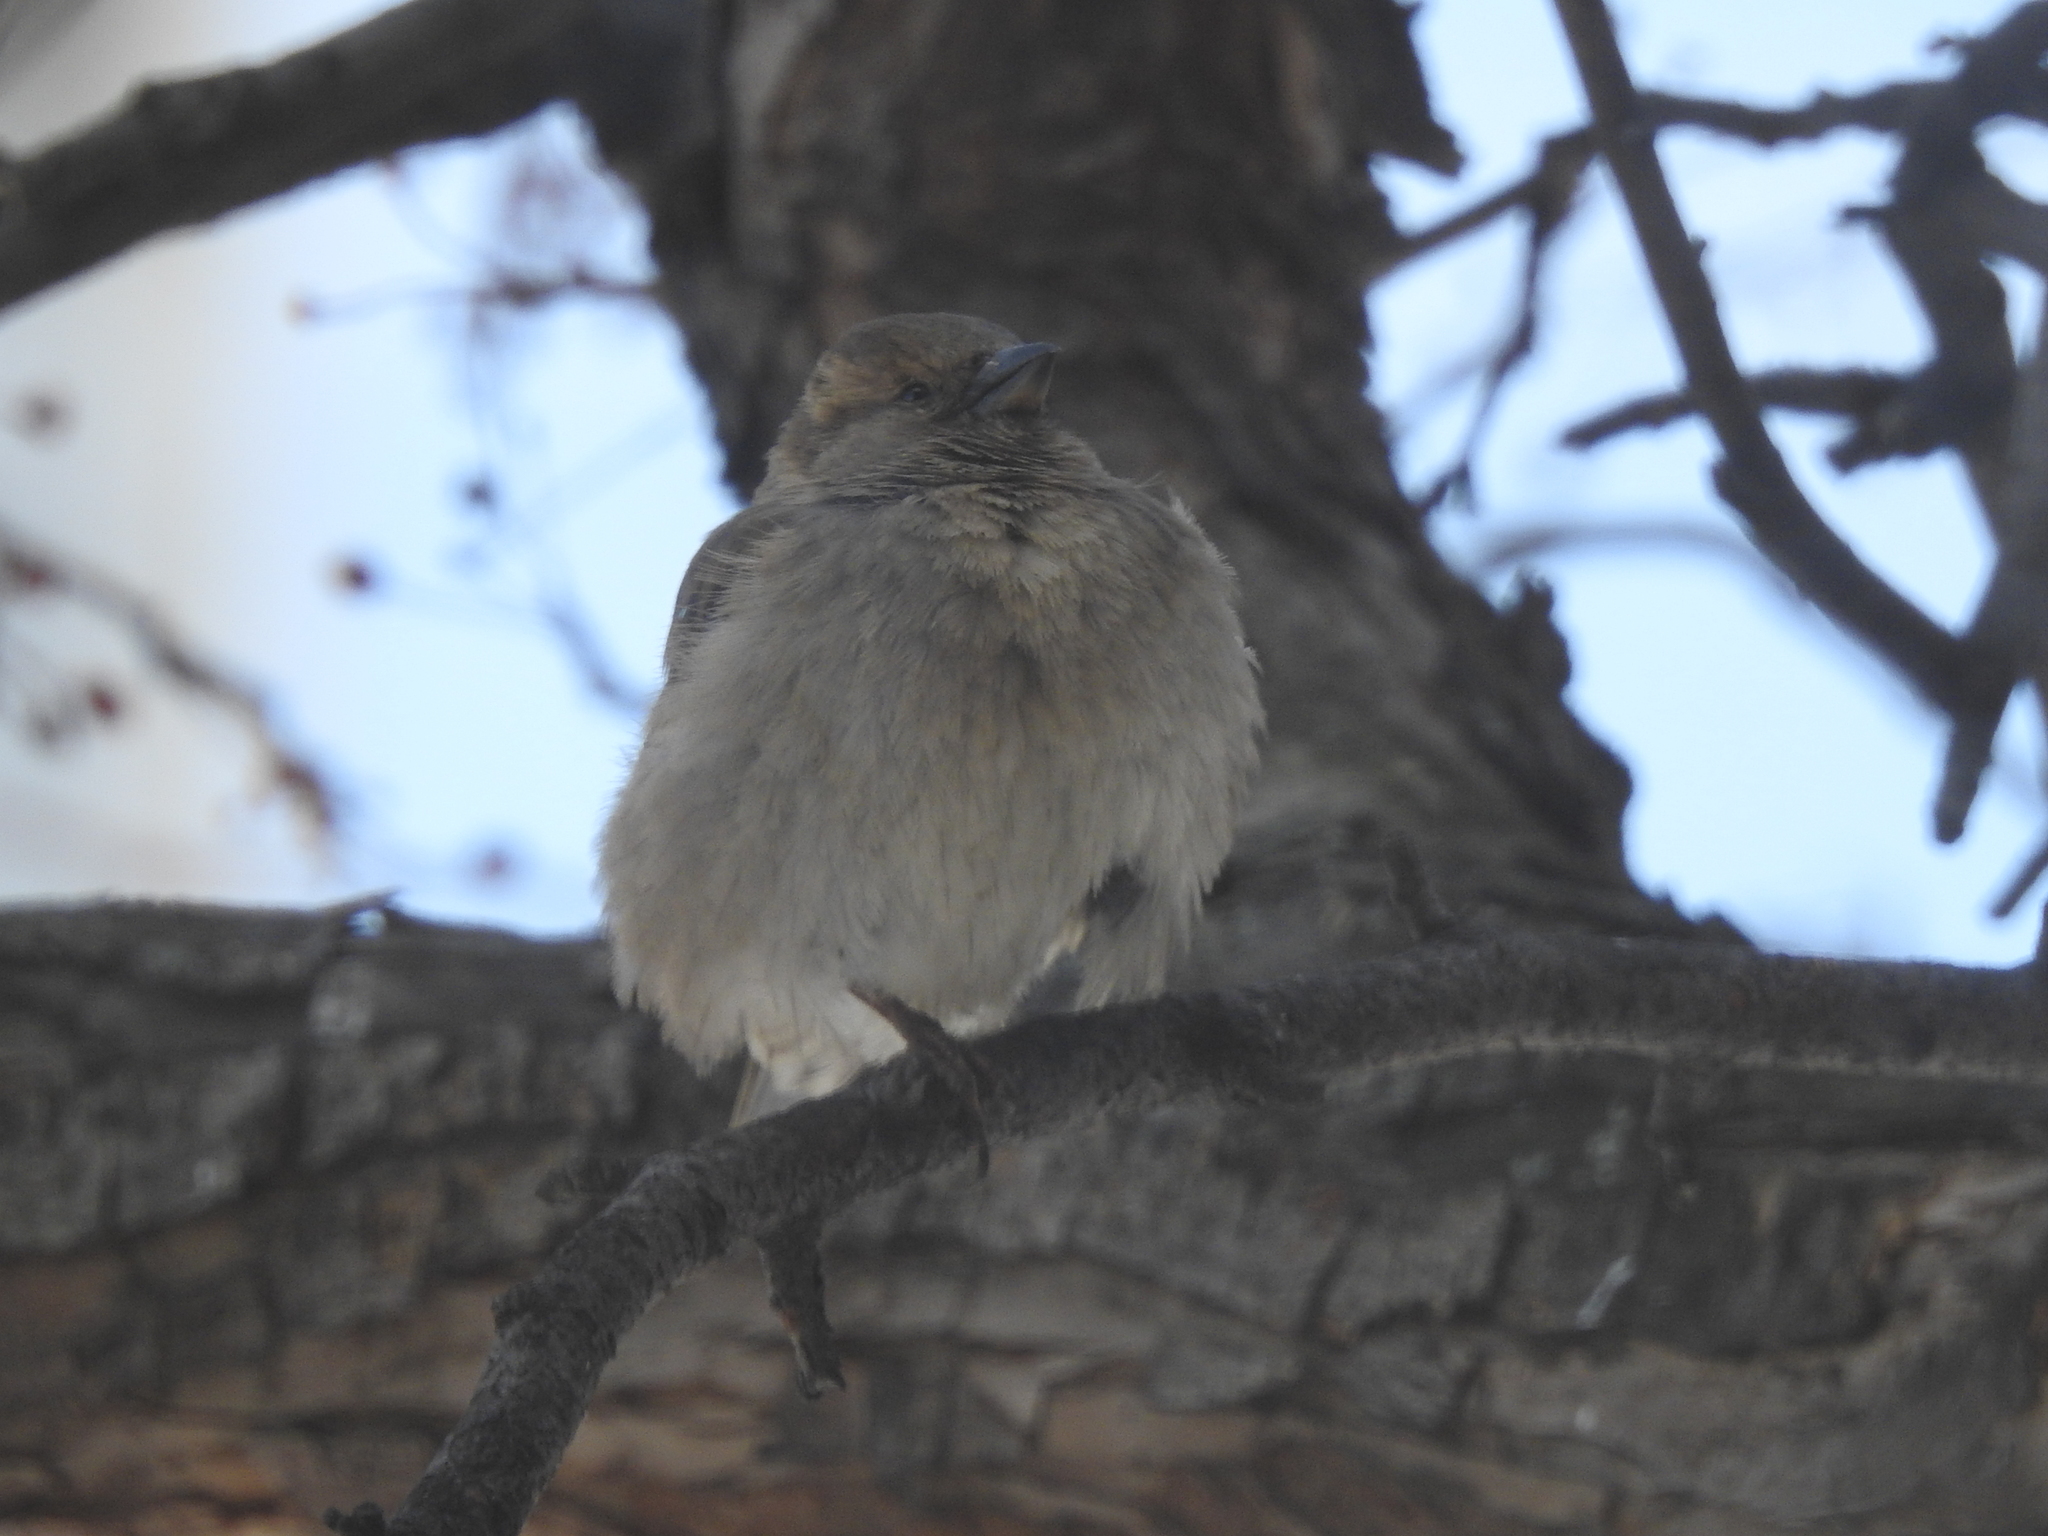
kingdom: Animalia
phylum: Chordata
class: Aves
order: Passeriformes
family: Passeridae
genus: Passer
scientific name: Passer domesticus
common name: House sparrow
